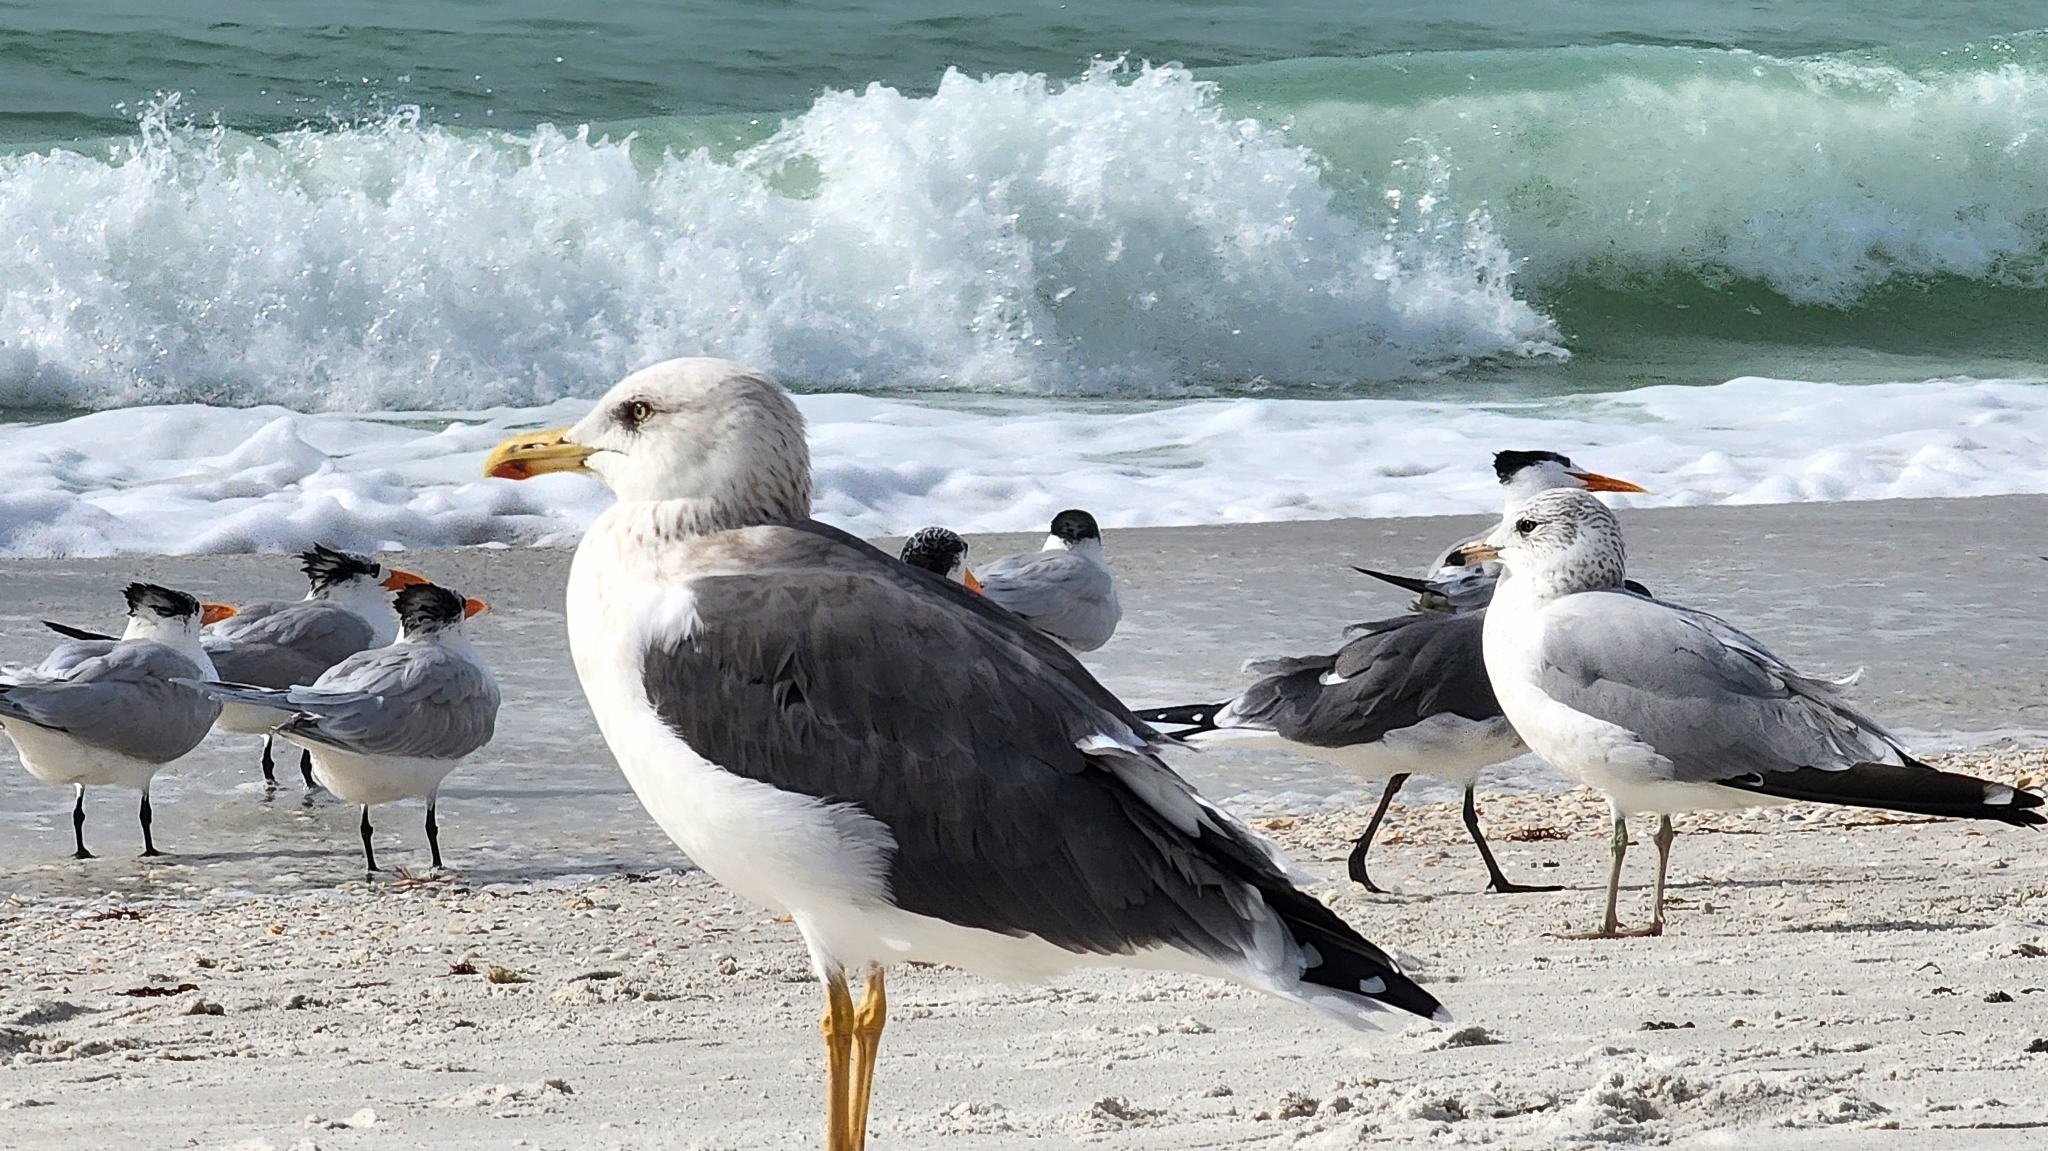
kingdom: Animalia
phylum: Chordata
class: Aves
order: Charadriiformes
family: Laridae
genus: Larus
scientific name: Larus fuscus
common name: Lesser black-backed gull
